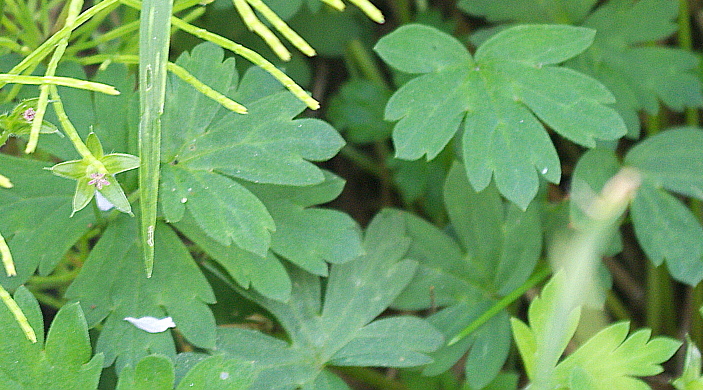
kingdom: Plantae
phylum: Tracheophyta
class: Magnoliopsida
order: Geraniales
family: Geraniaceae
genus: Geranium
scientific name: Geranium sibiricum
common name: Siberian crane's-bill
